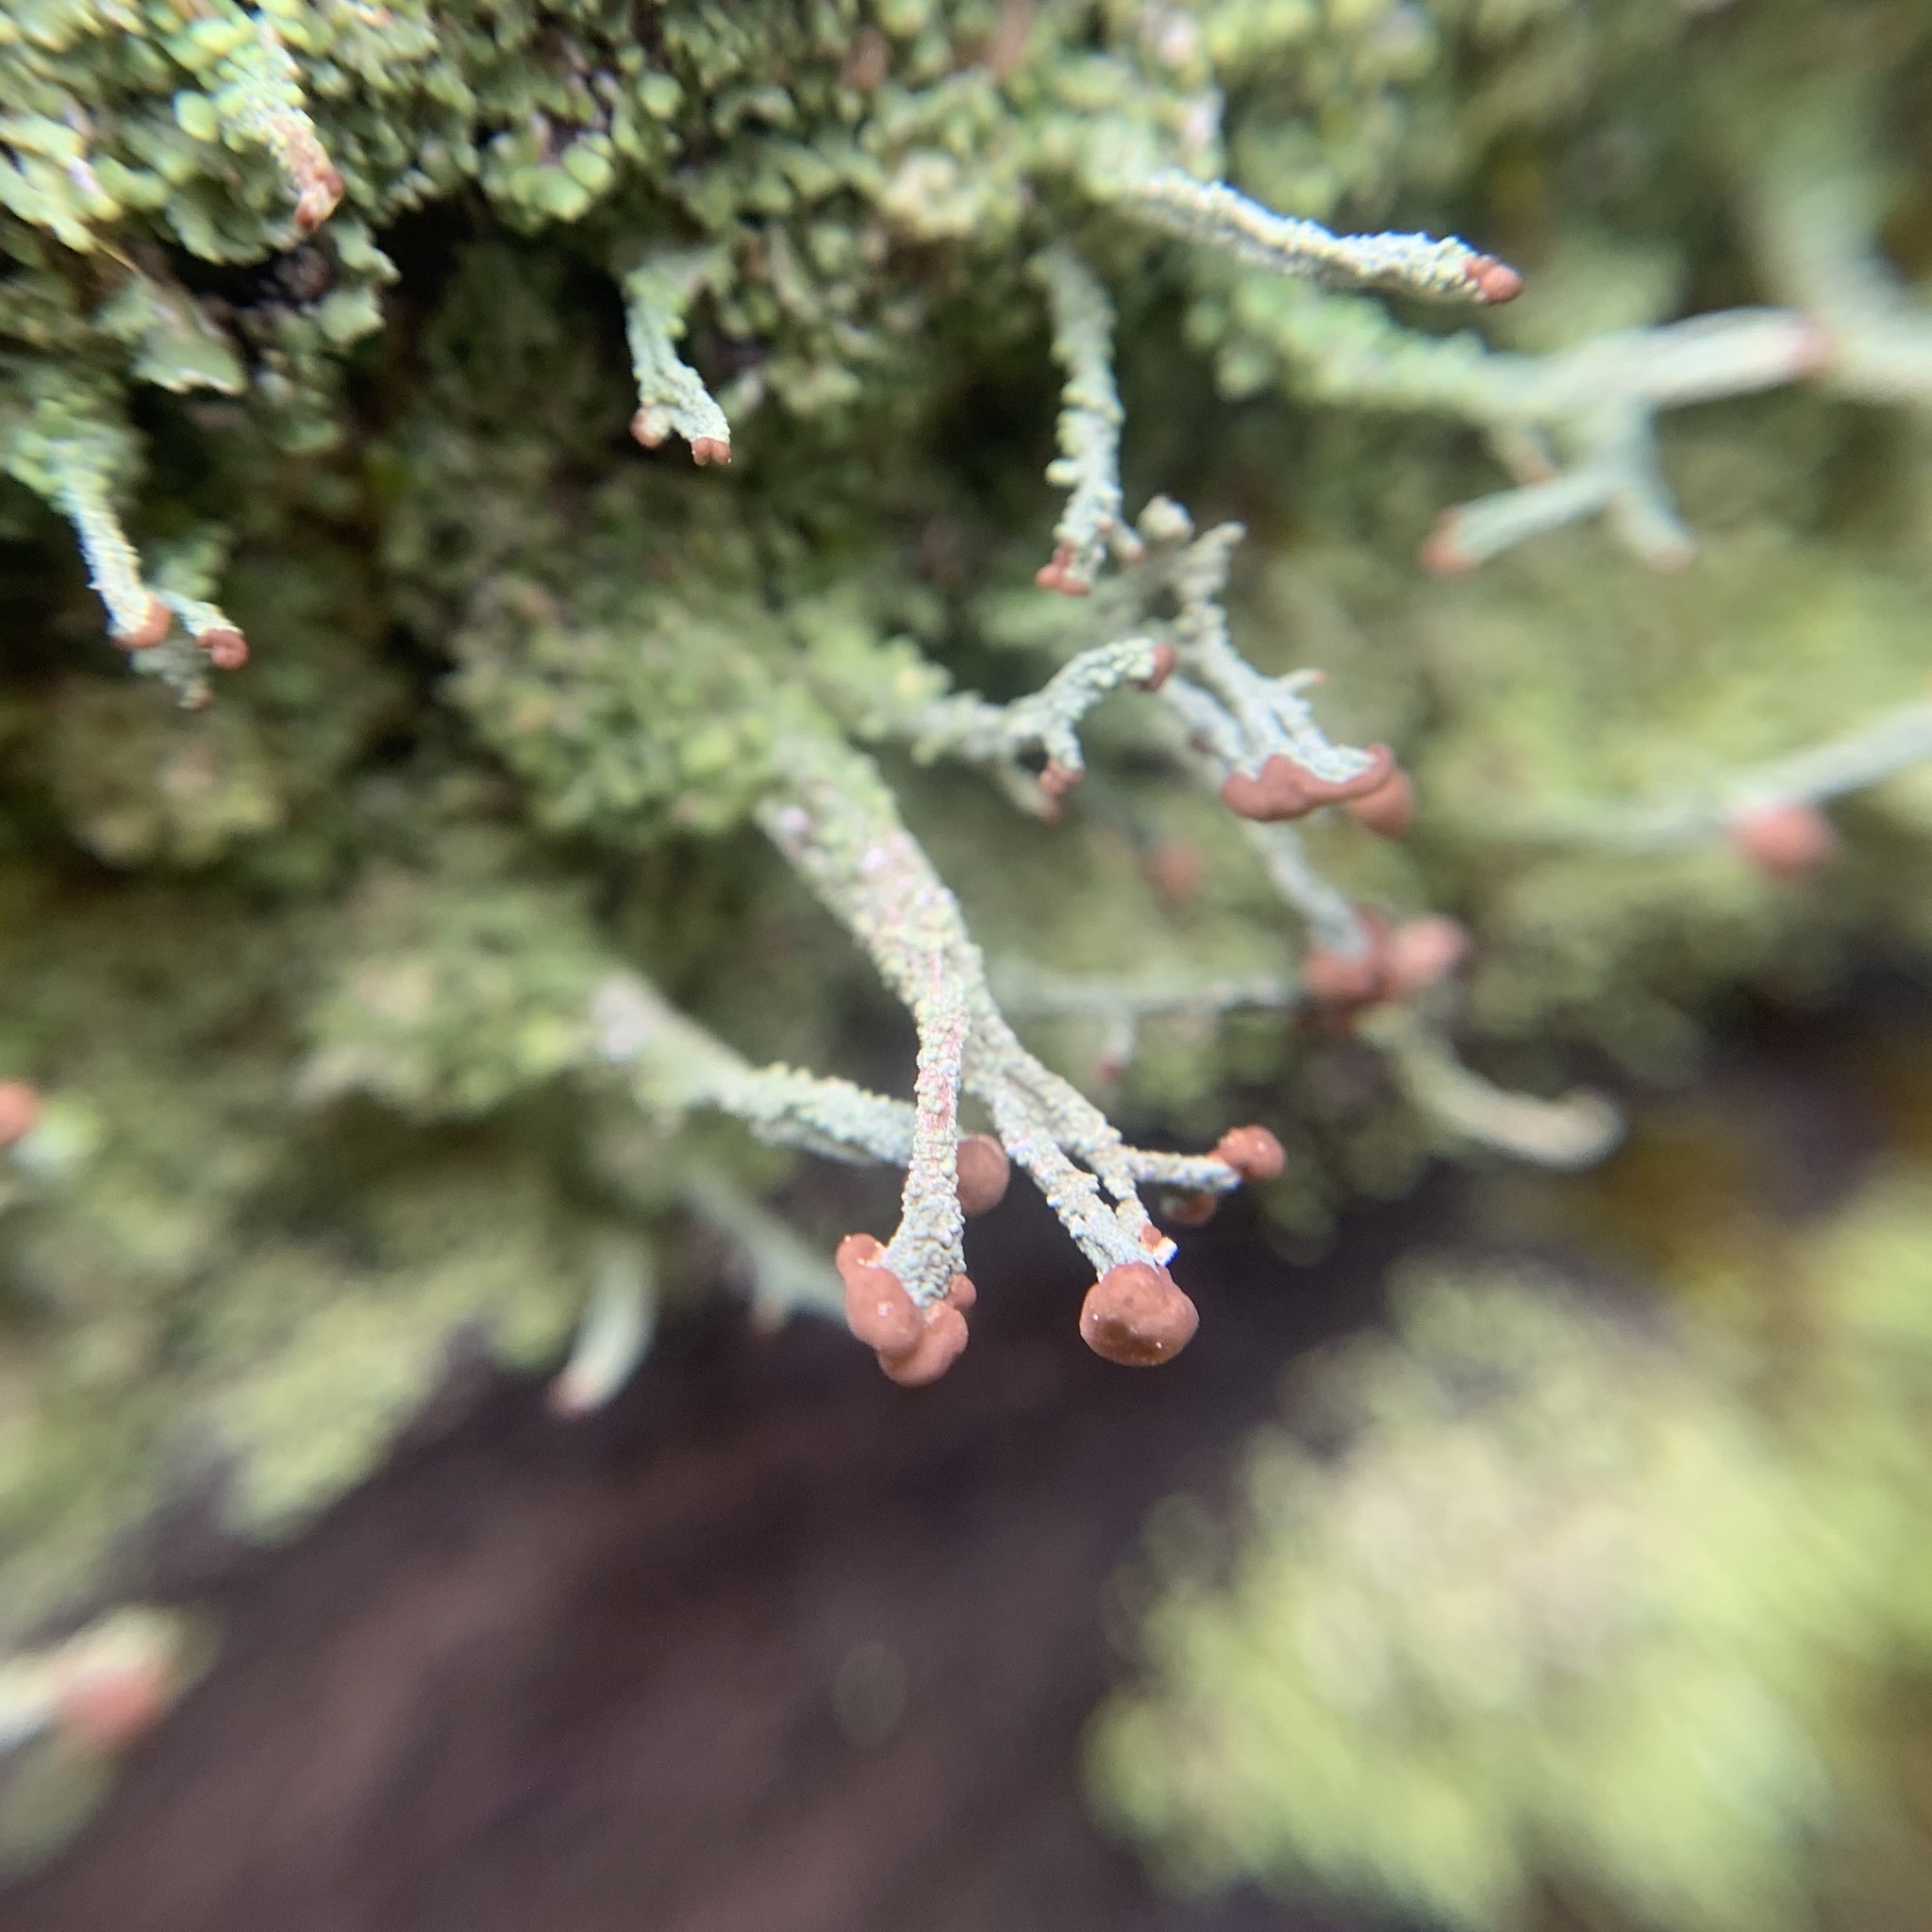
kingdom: Fungi
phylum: Ascomycota
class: Lecanoromycetes
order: Lecanorales
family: Cladoniaceae
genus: Cladonia
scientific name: Cladonia peziziformis
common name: Cup lichen
